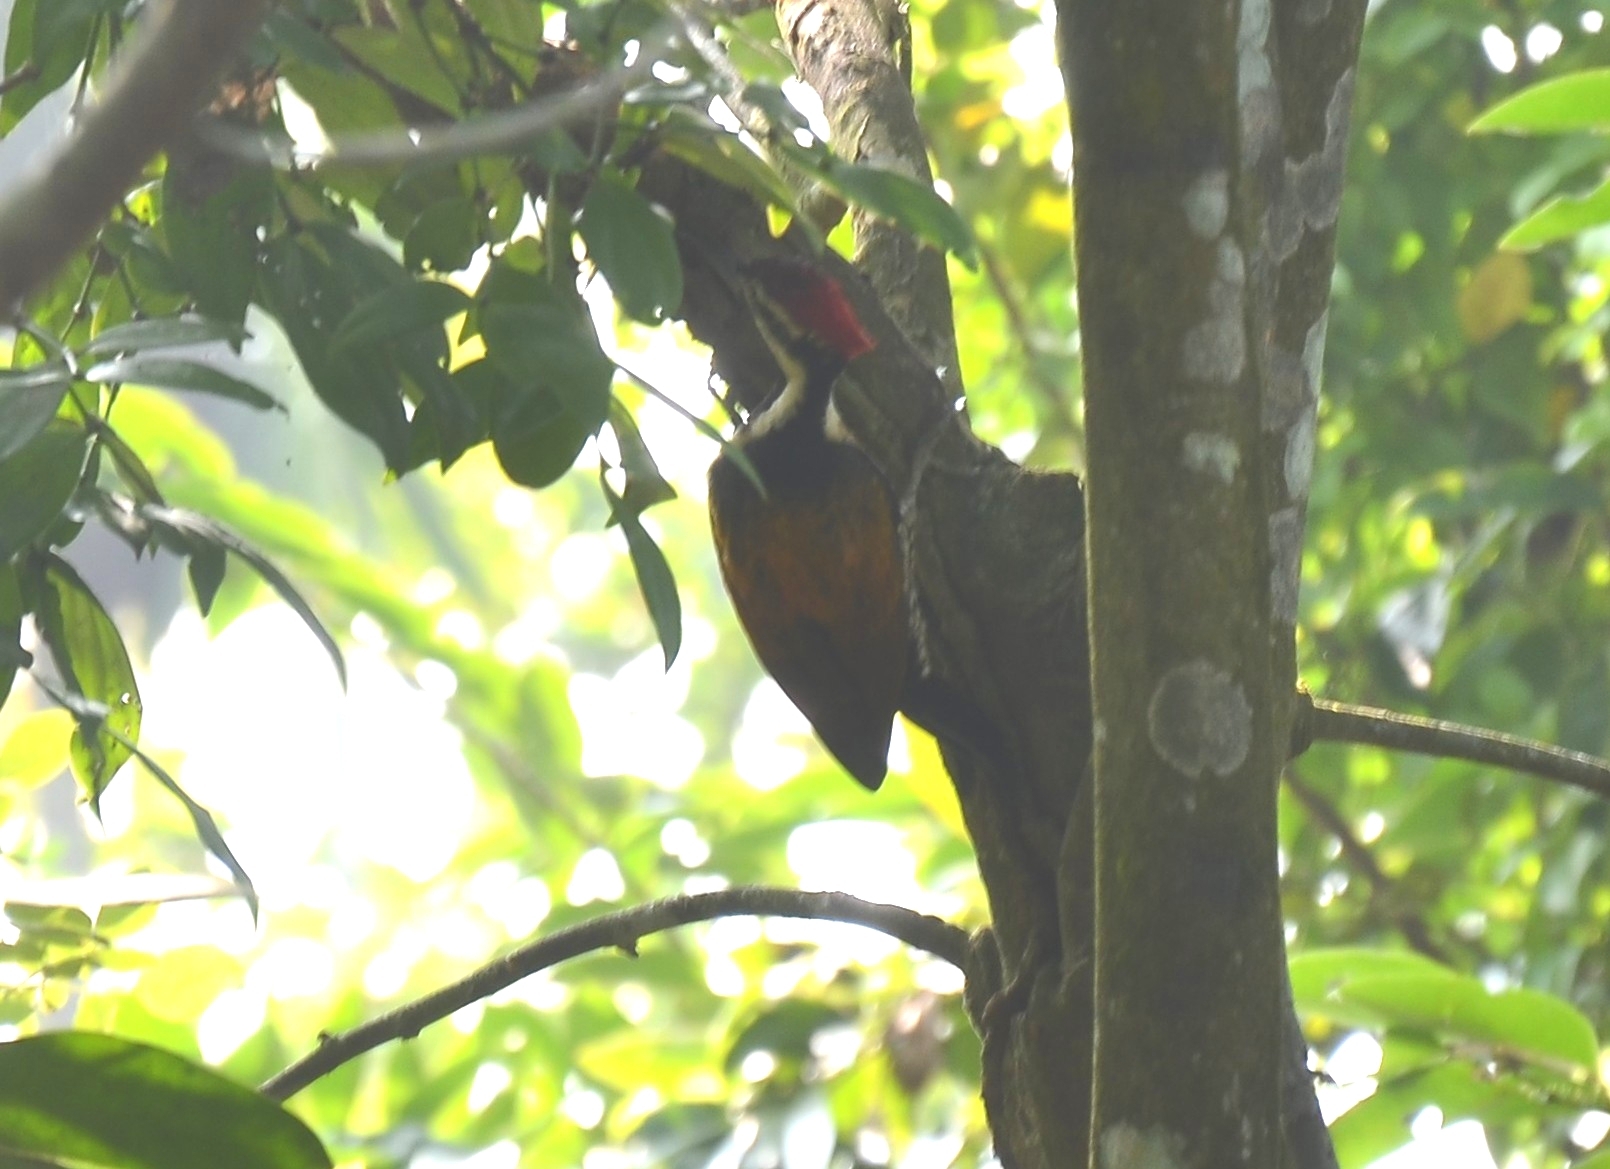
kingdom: Animalia
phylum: Chordata
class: Aves
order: Piciformes
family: Picidae
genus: Dinopium
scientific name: Dinopium benghalense
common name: Black-rumped flameback
